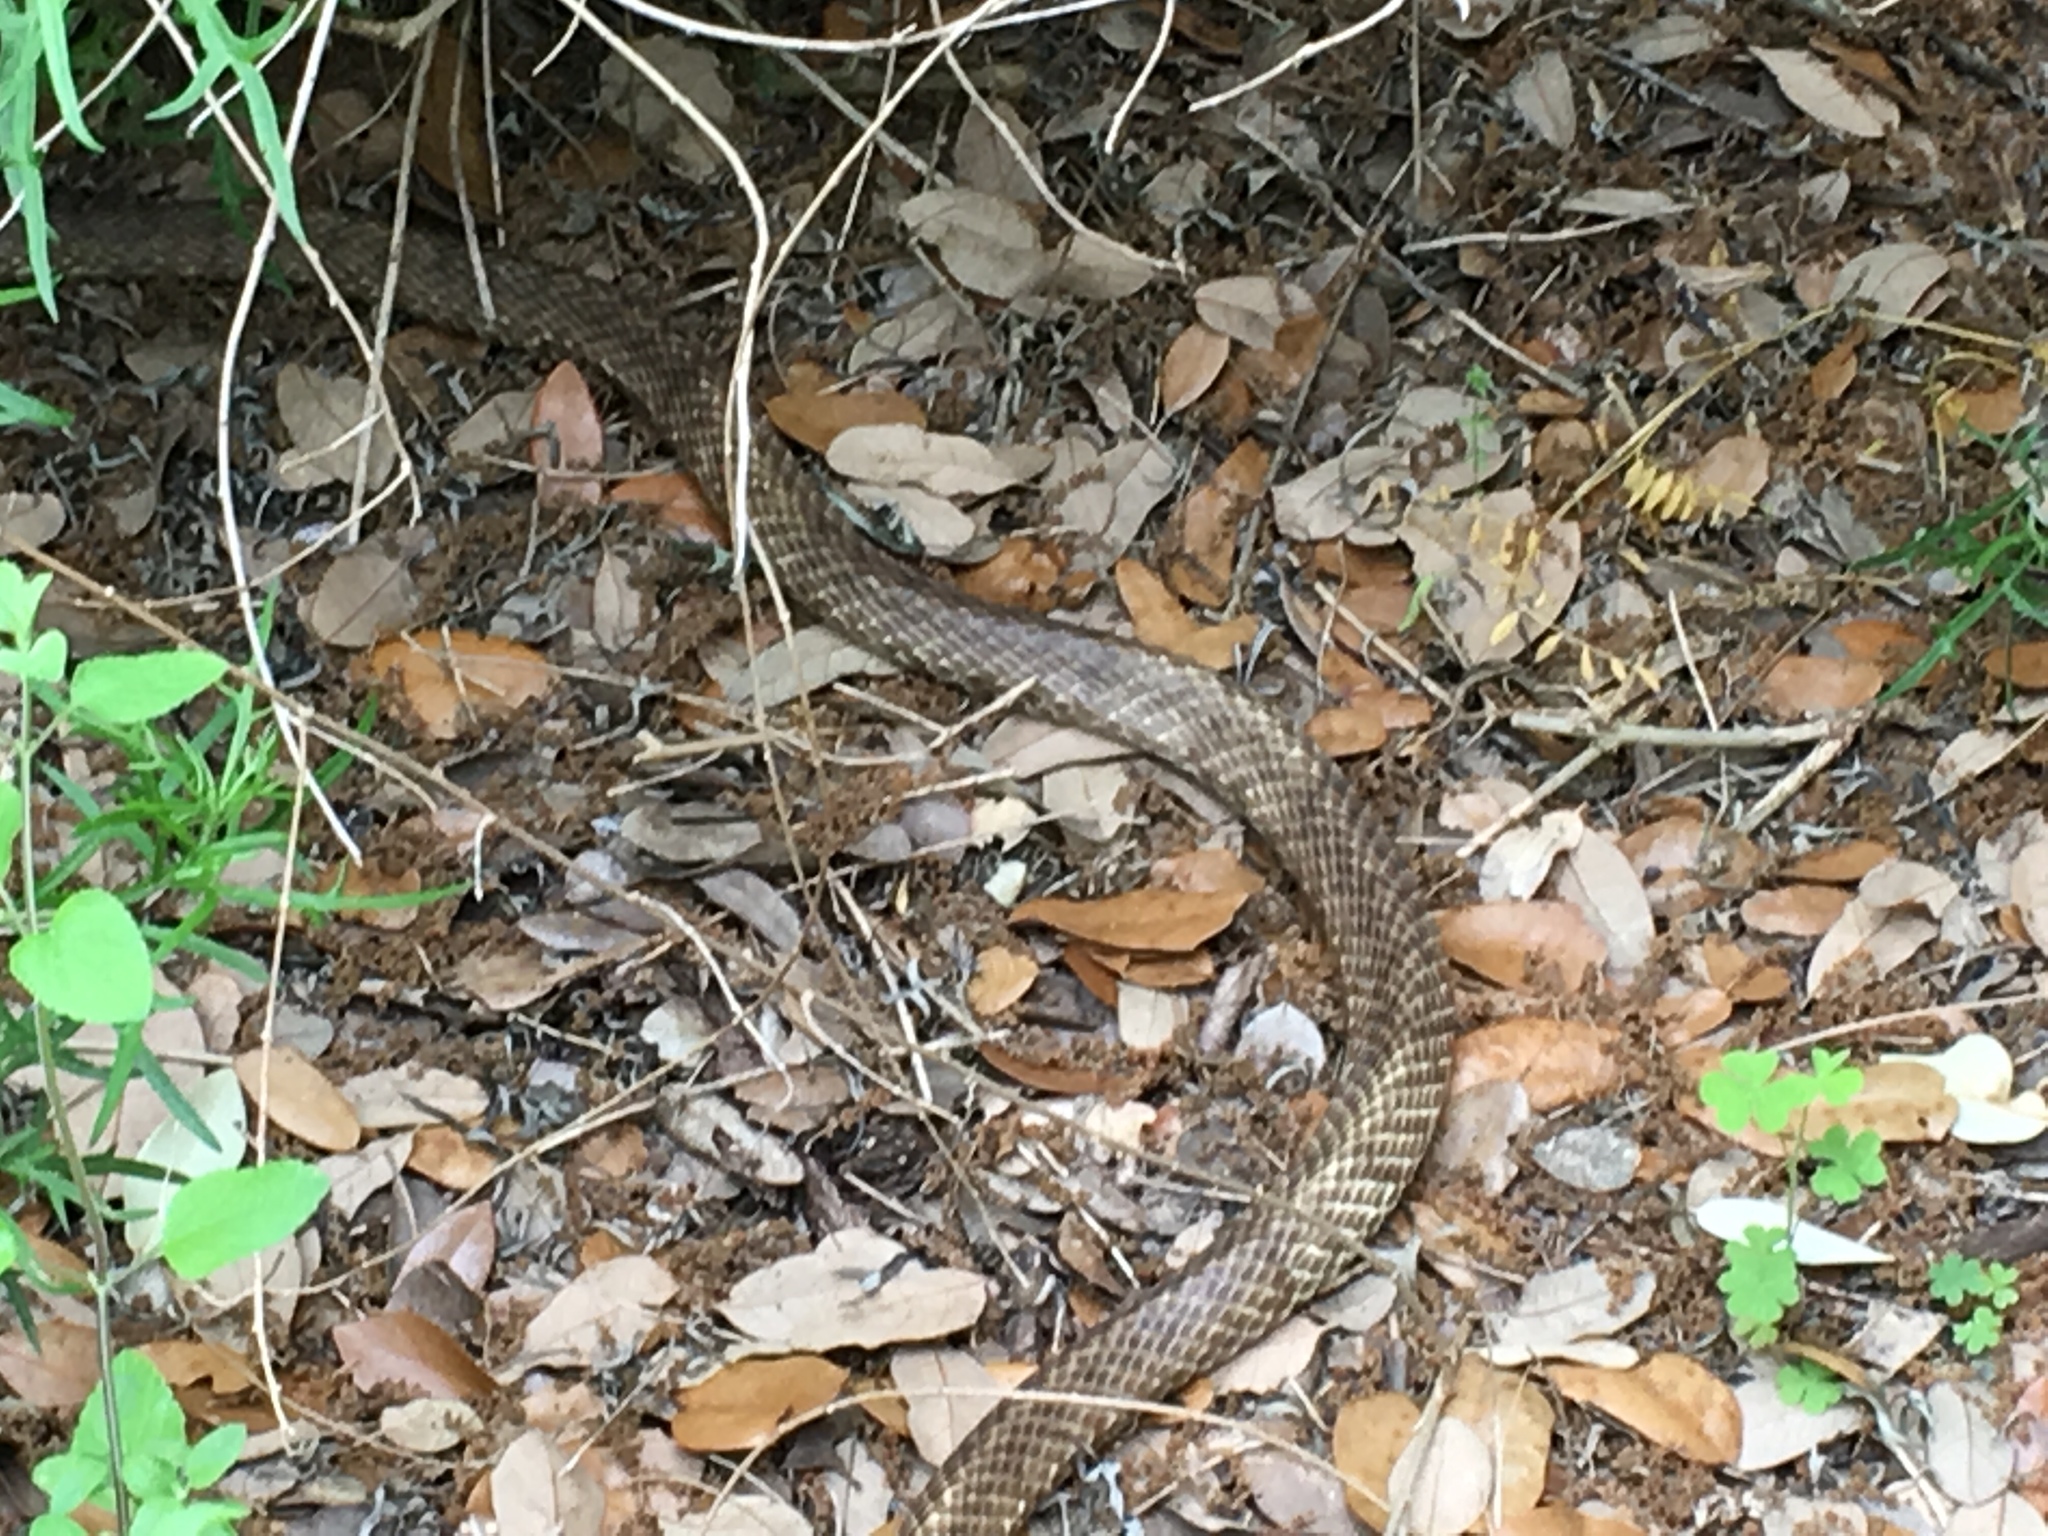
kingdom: Animalia
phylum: Chordata
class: Squamata
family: Colubridae
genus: Masticophis
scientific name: Masticophis flagellum
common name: Coachwhip
